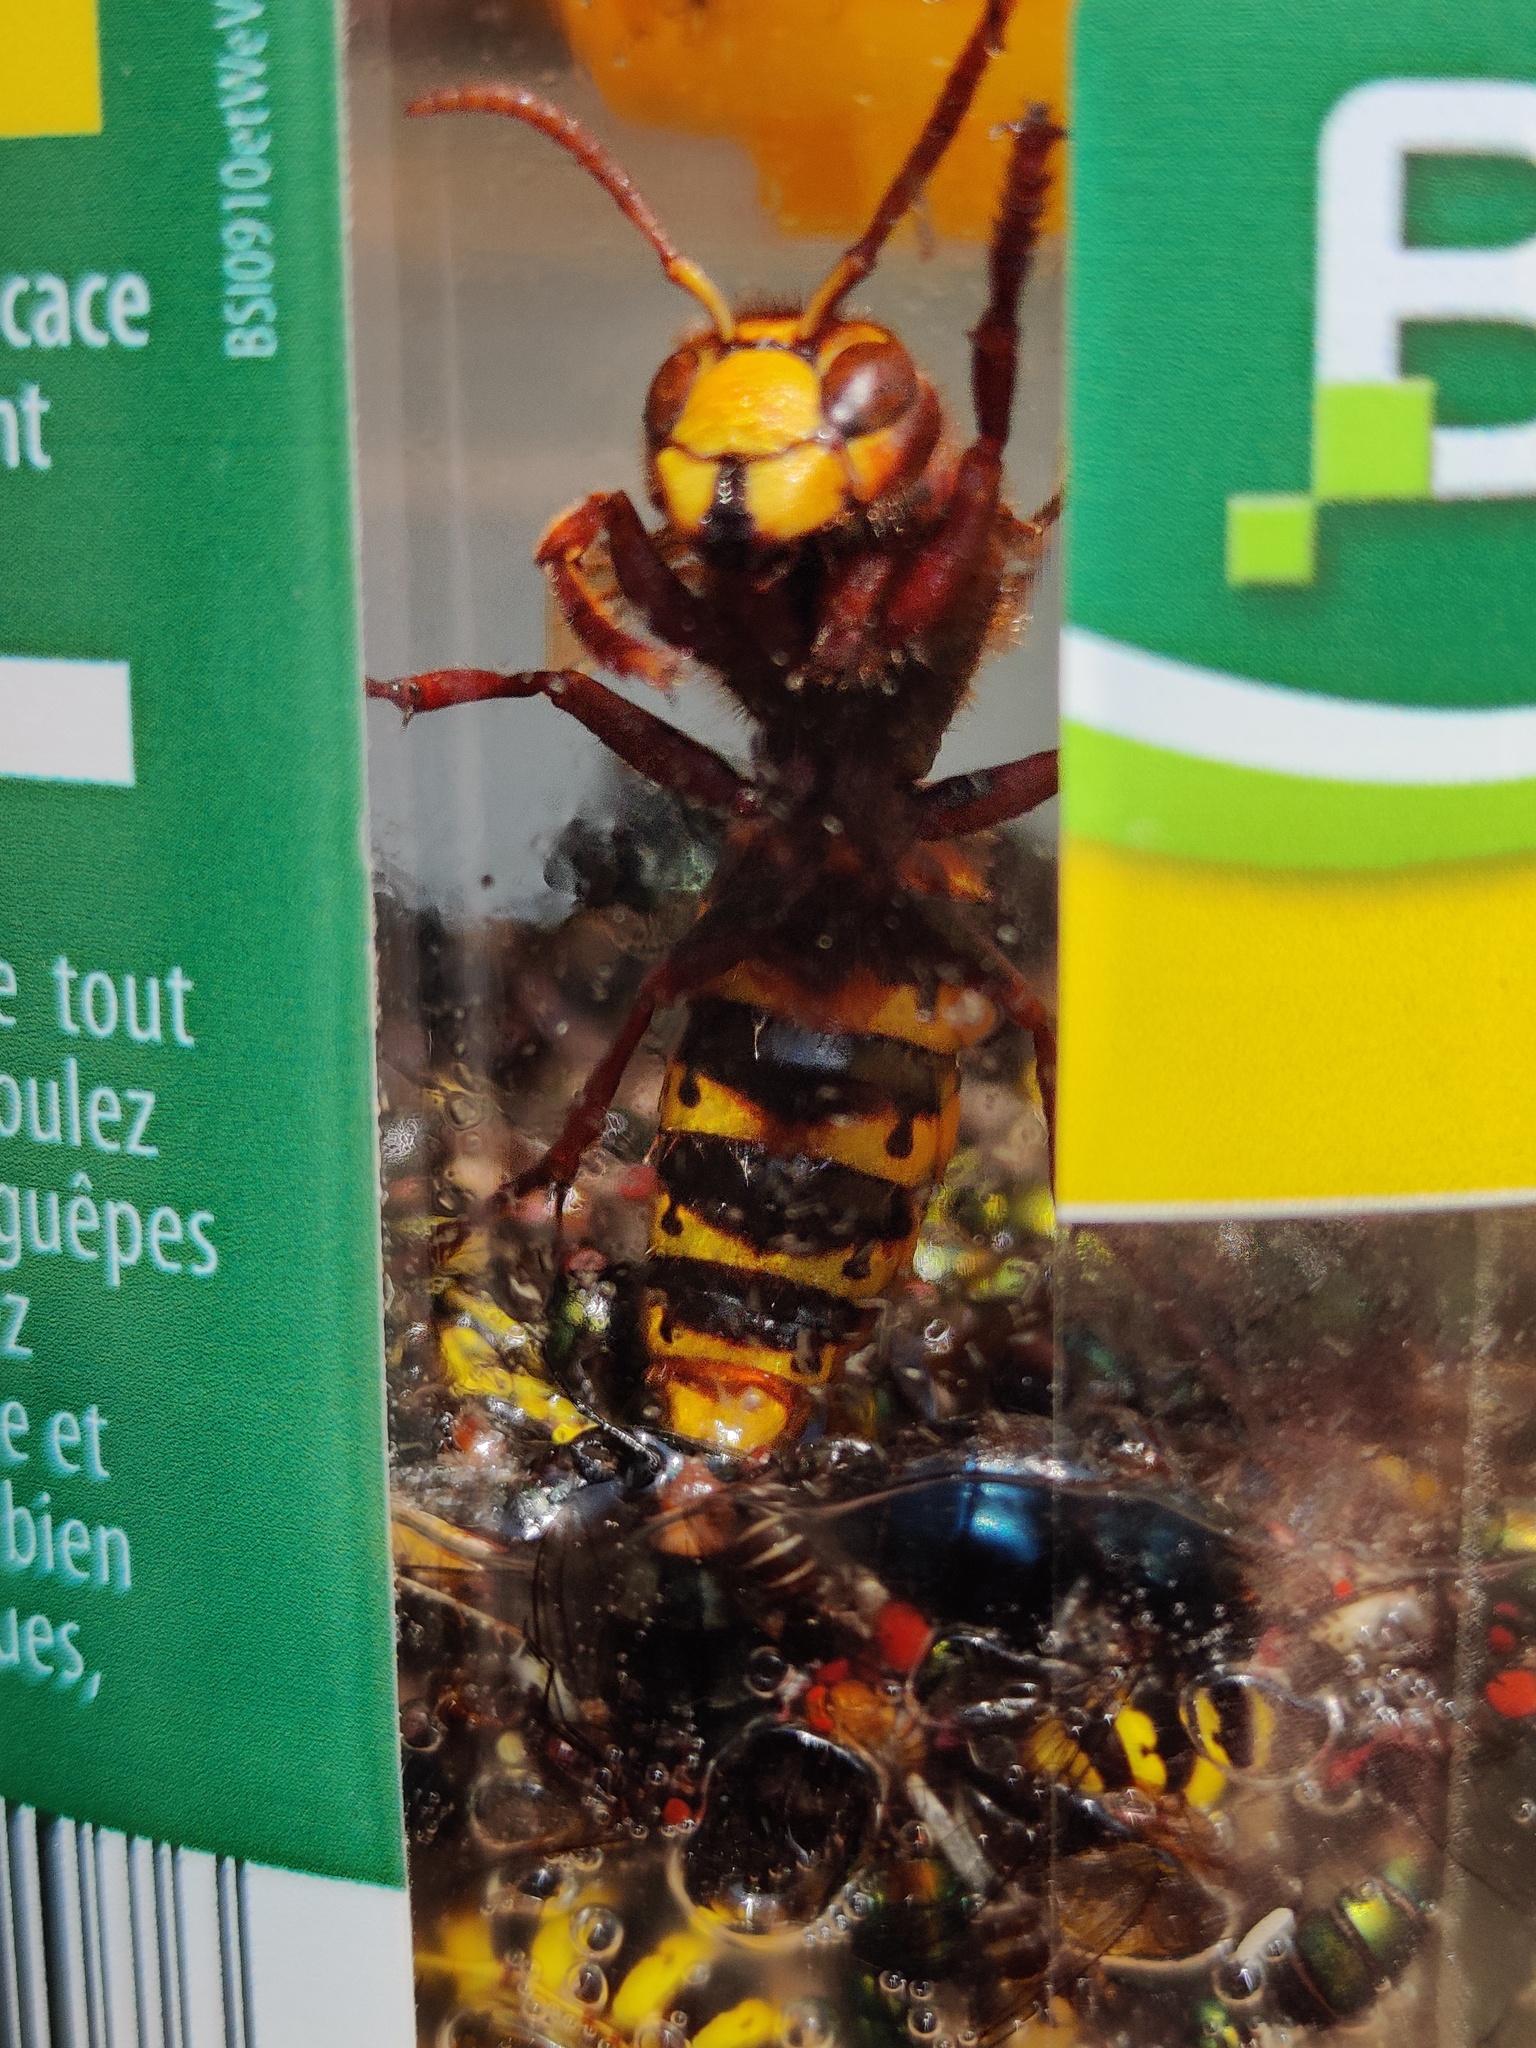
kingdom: Animalia
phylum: Arthropoda
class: Insecta
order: Hymenoptera
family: Vespidae
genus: Vespa
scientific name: Vespa crabro
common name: Hornet
